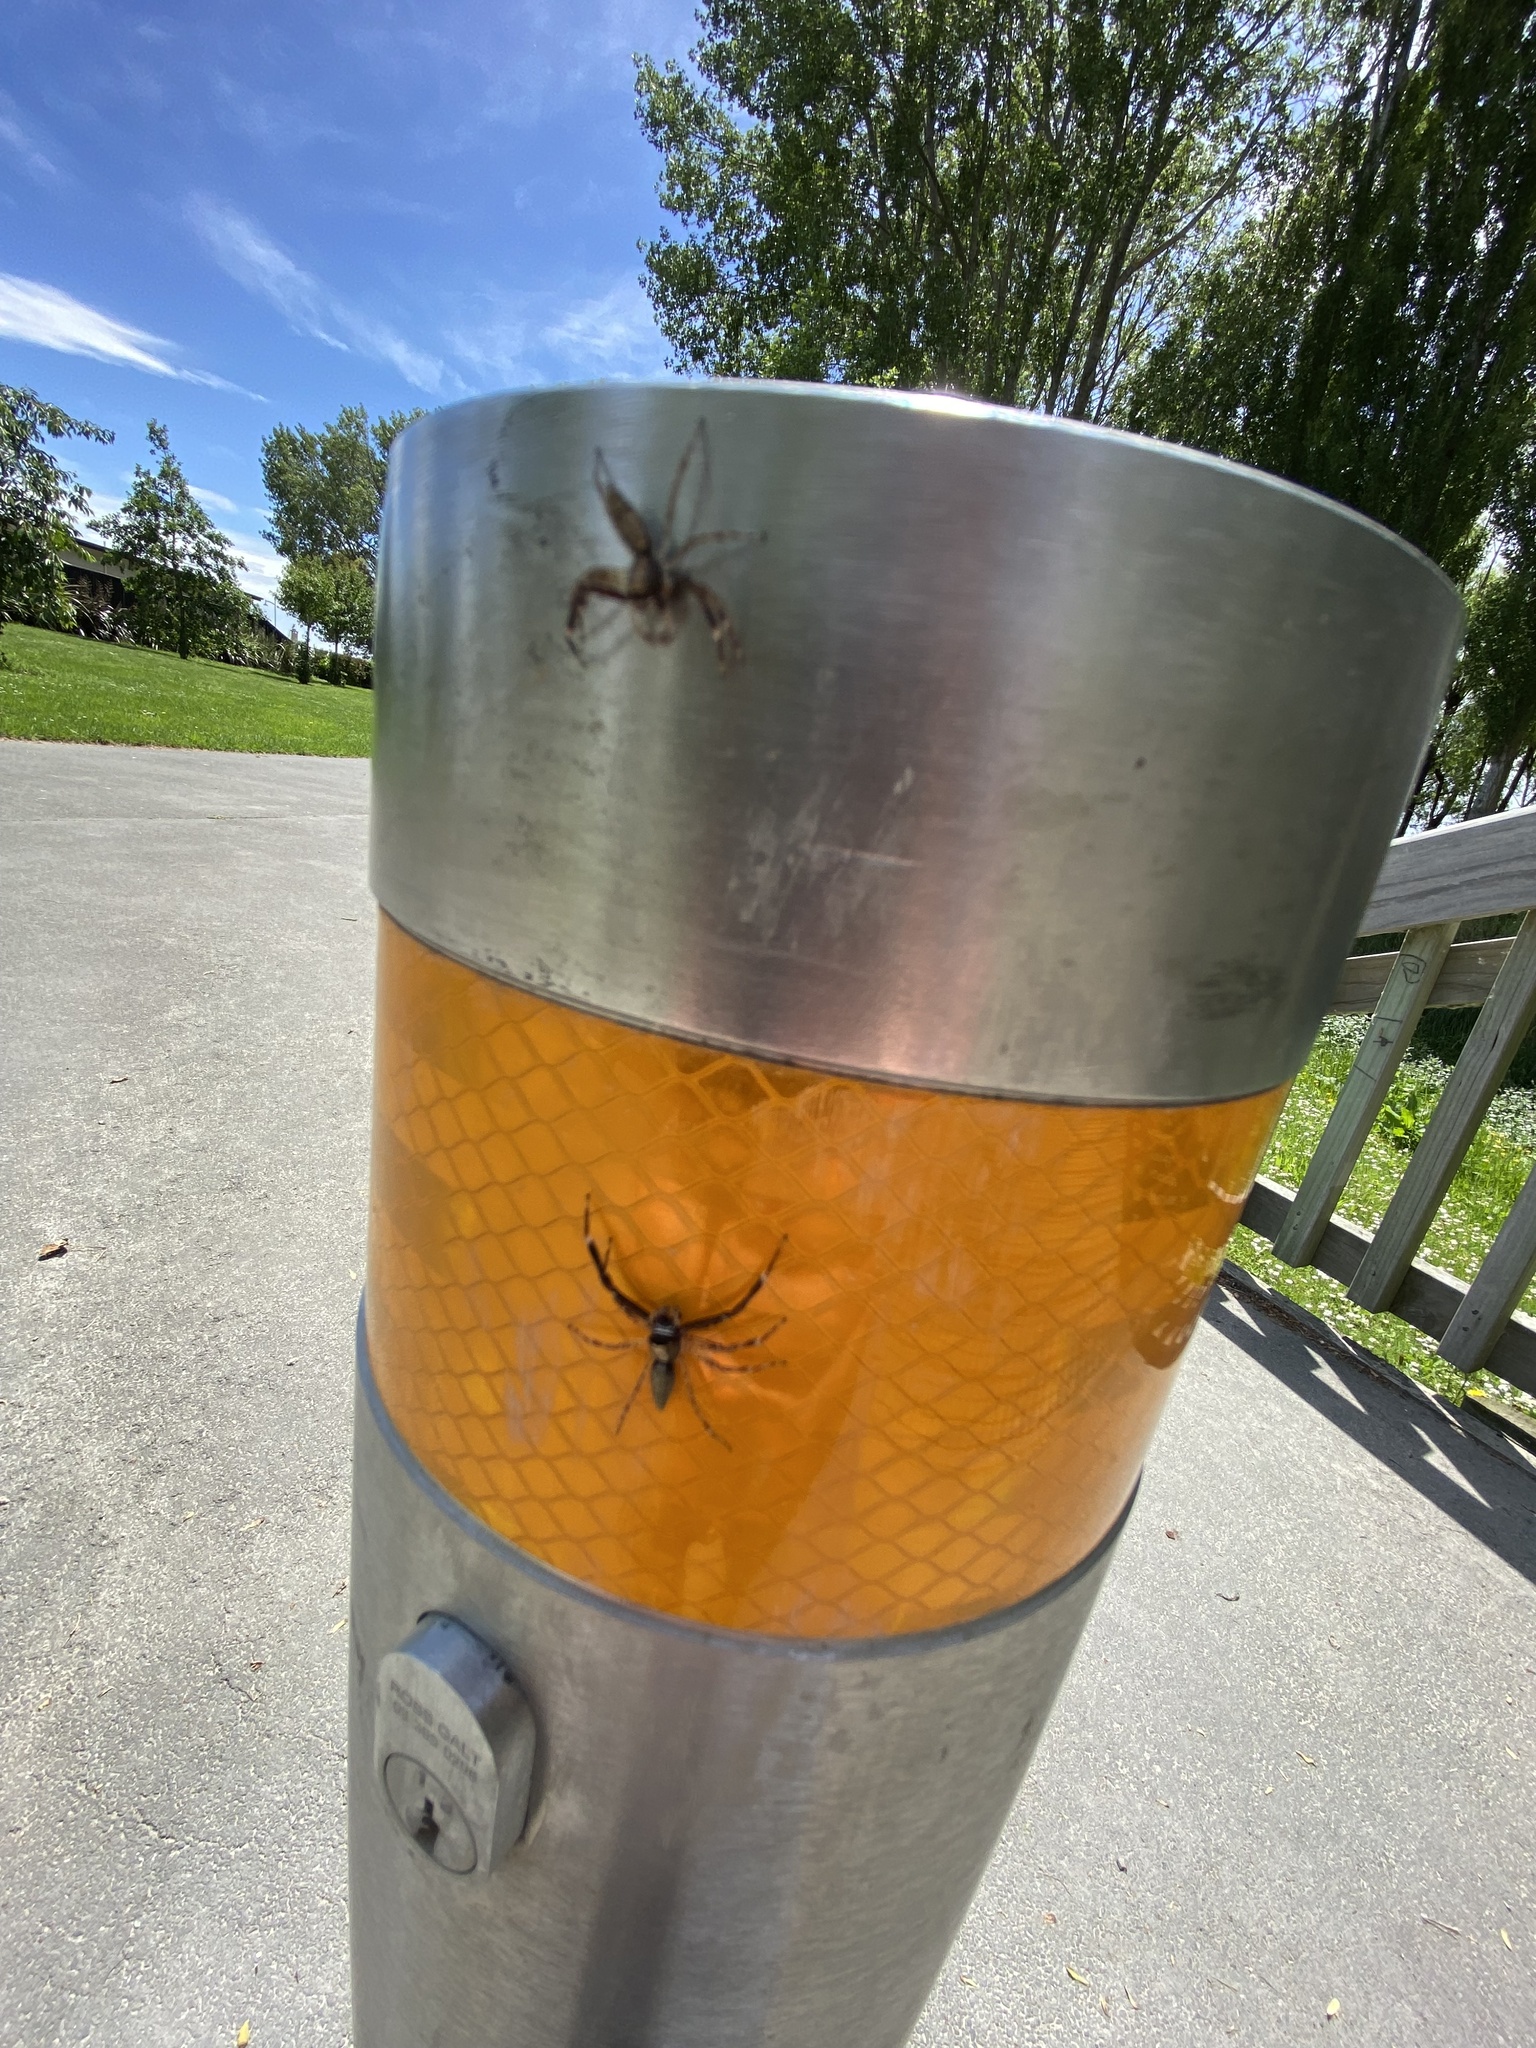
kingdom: Animalia
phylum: Arthropoda
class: Arachnida
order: Araneae
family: Salticidae
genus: Helpis
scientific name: Helpis minitabunda
